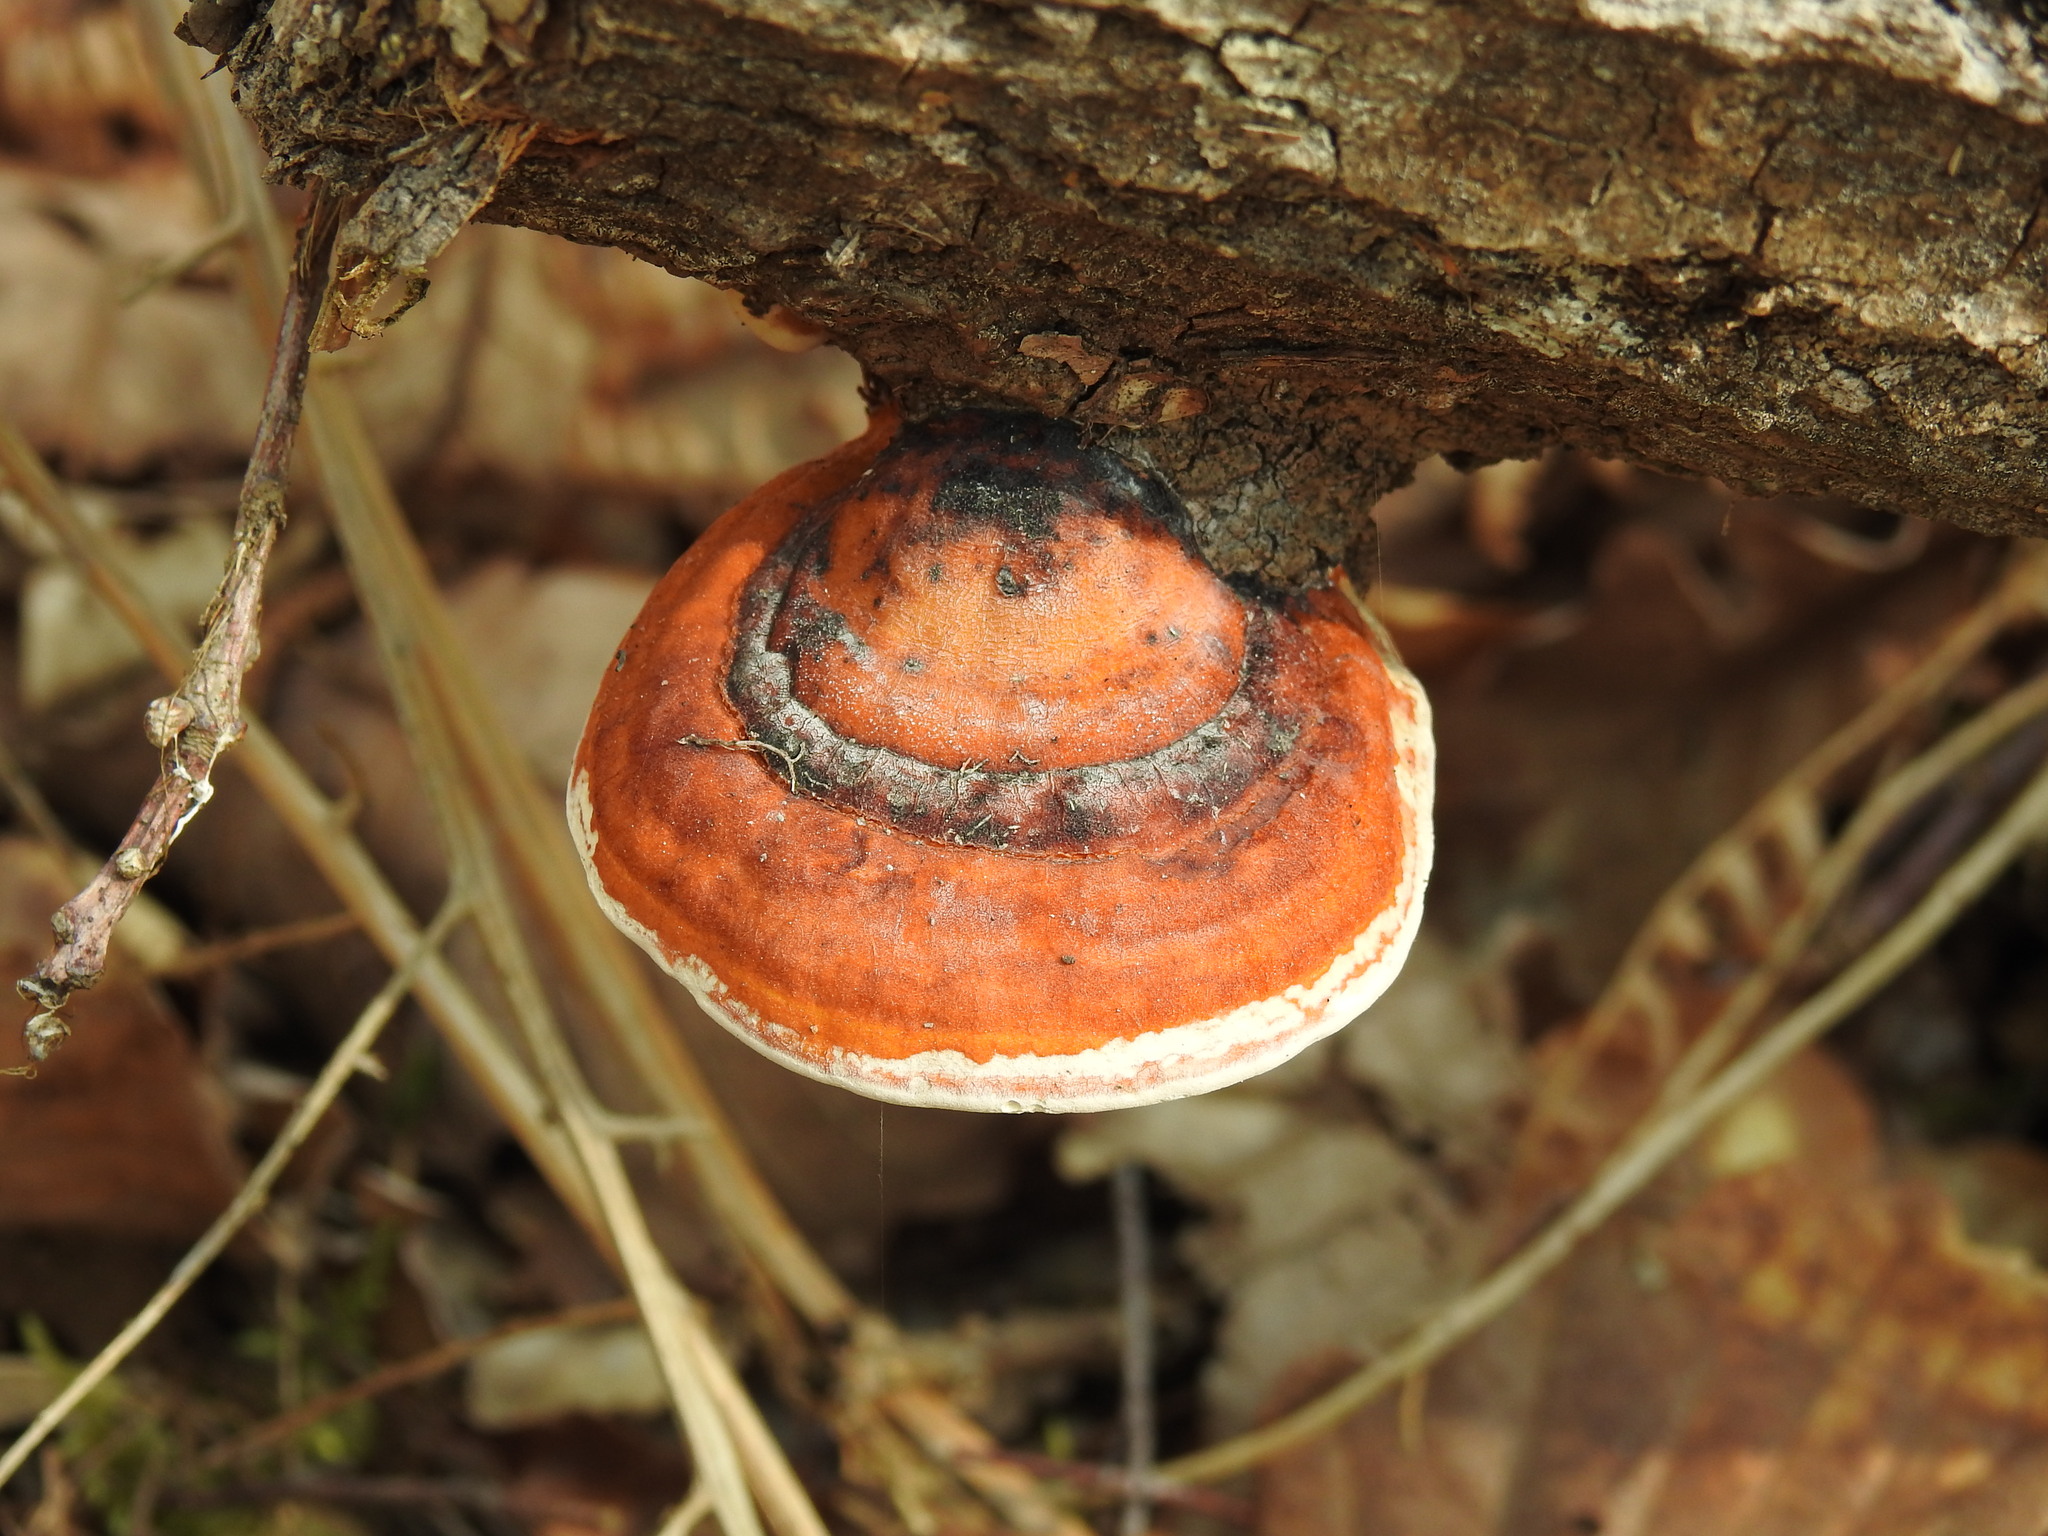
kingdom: Fungi
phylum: Basidiomycota
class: Agaricomycetes
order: Polyporales
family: Fomitopsidaceae
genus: Fomitopsis
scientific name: Fomitopsis pinicola
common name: Red-belted bracket
